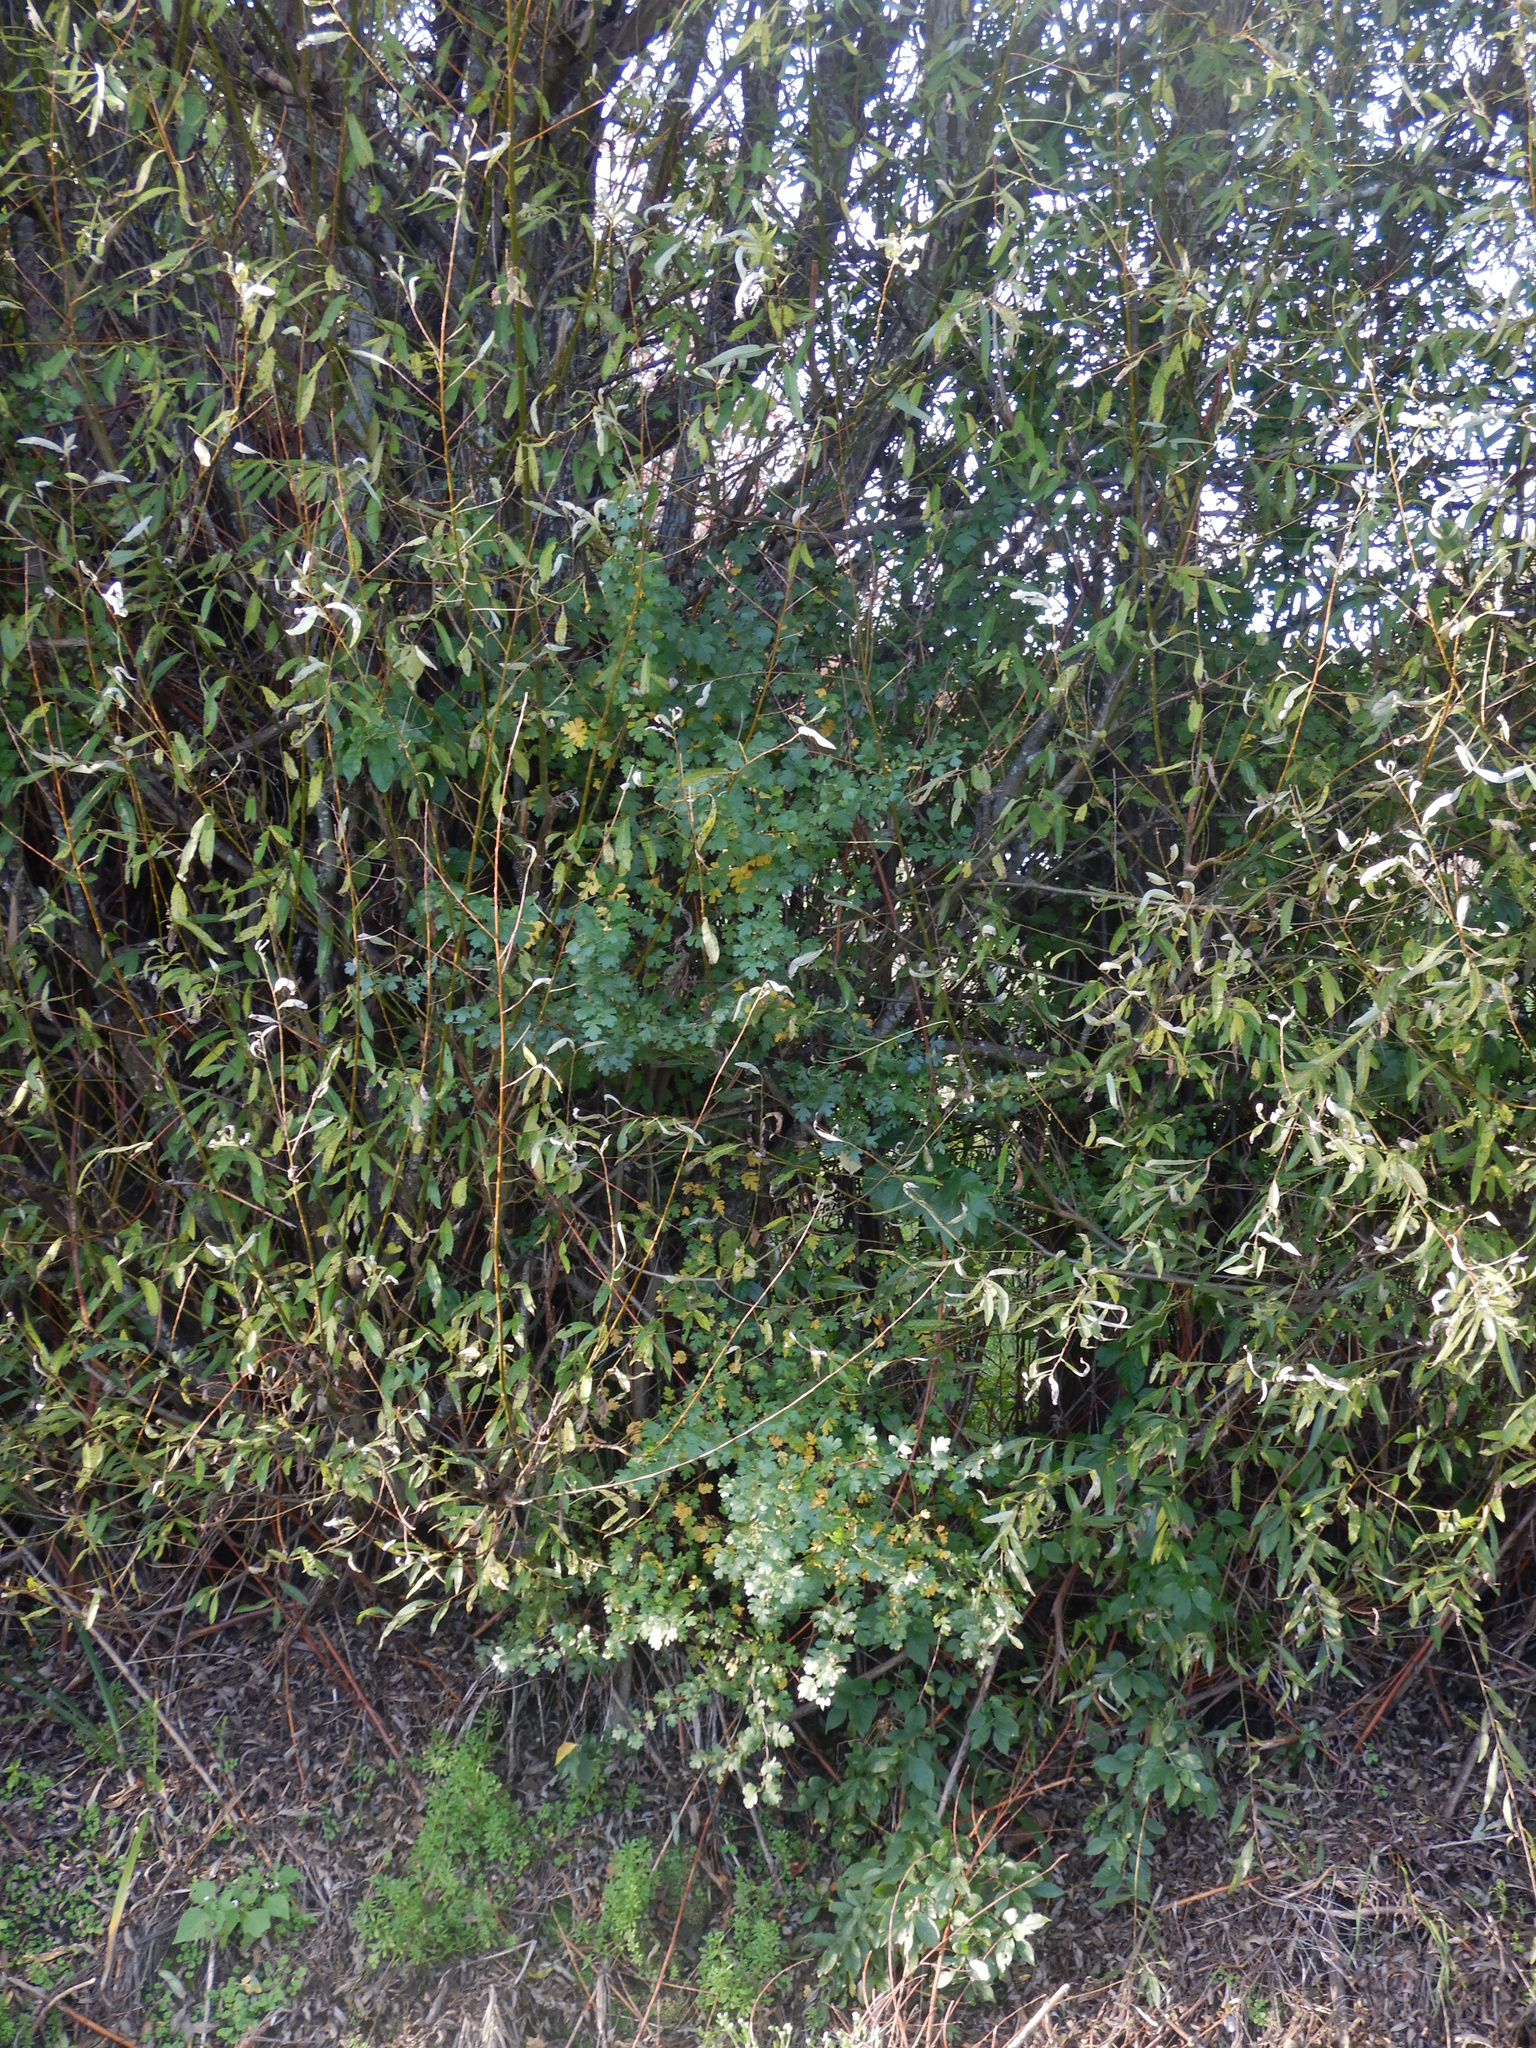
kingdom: Plantae
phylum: Tracheophyta
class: Magnoliopsida
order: Rosales
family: Rosaceae
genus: Crataegus
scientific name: Crataegus monogyna
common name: Hawthorn
